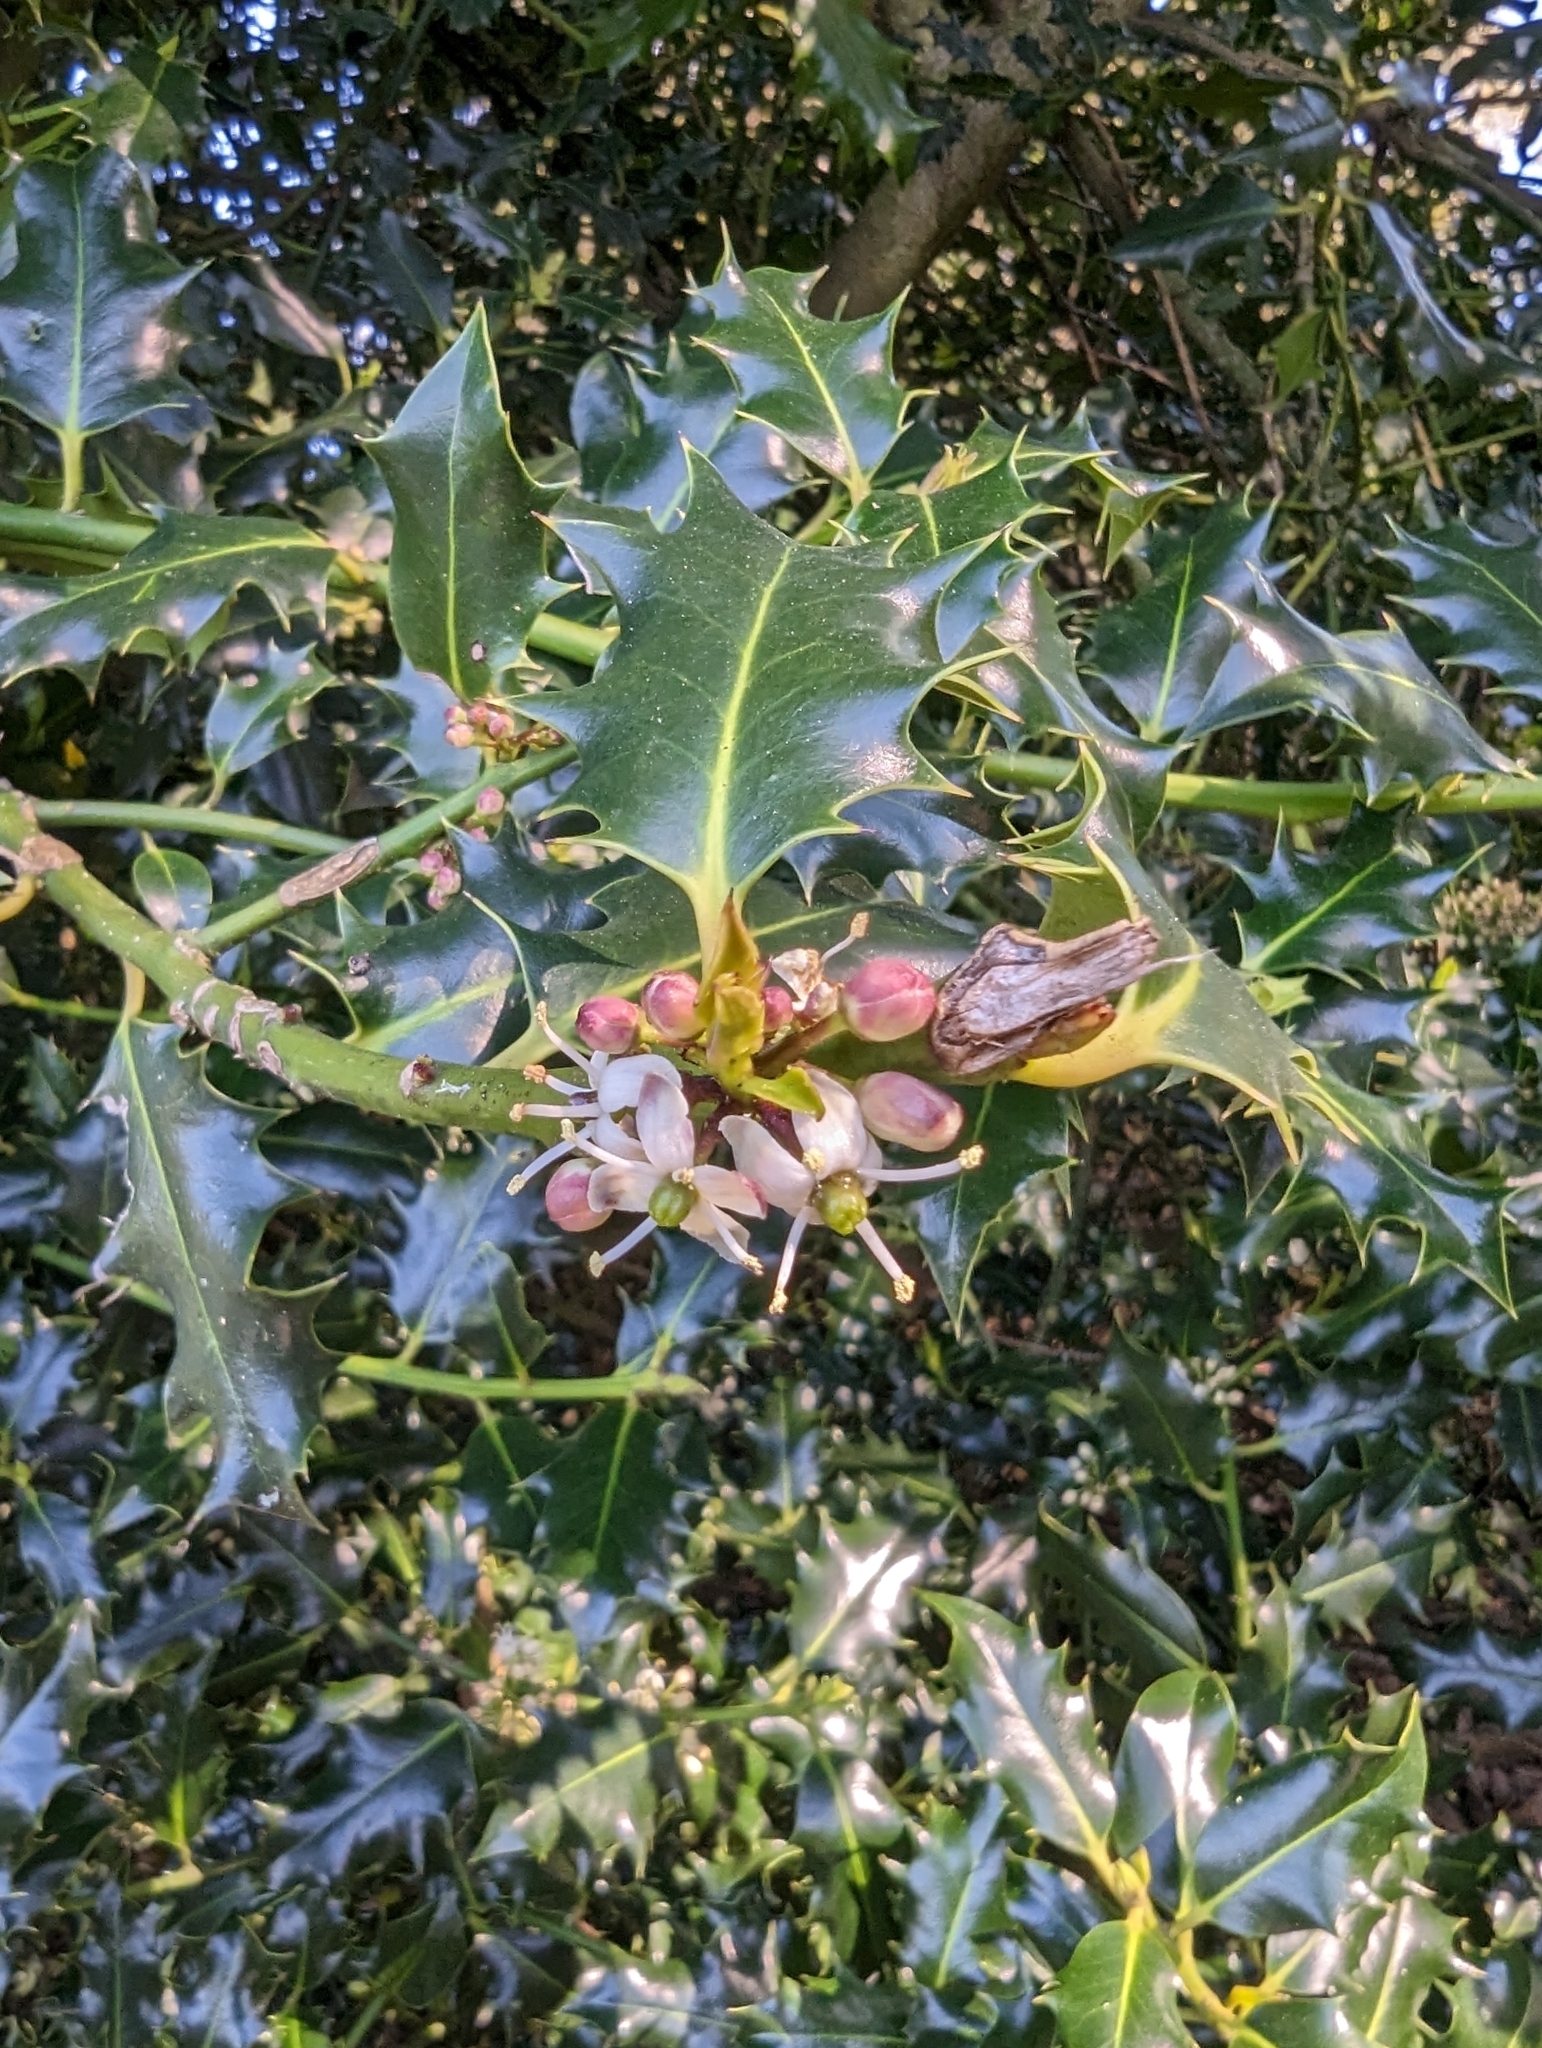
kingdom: Plantae
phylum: Tracheophyta
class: Magnoliopsida
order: Aquifoliales
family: Aquifoliaceae
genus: Ilex
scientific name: Ilex aquifolium
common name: English holly
